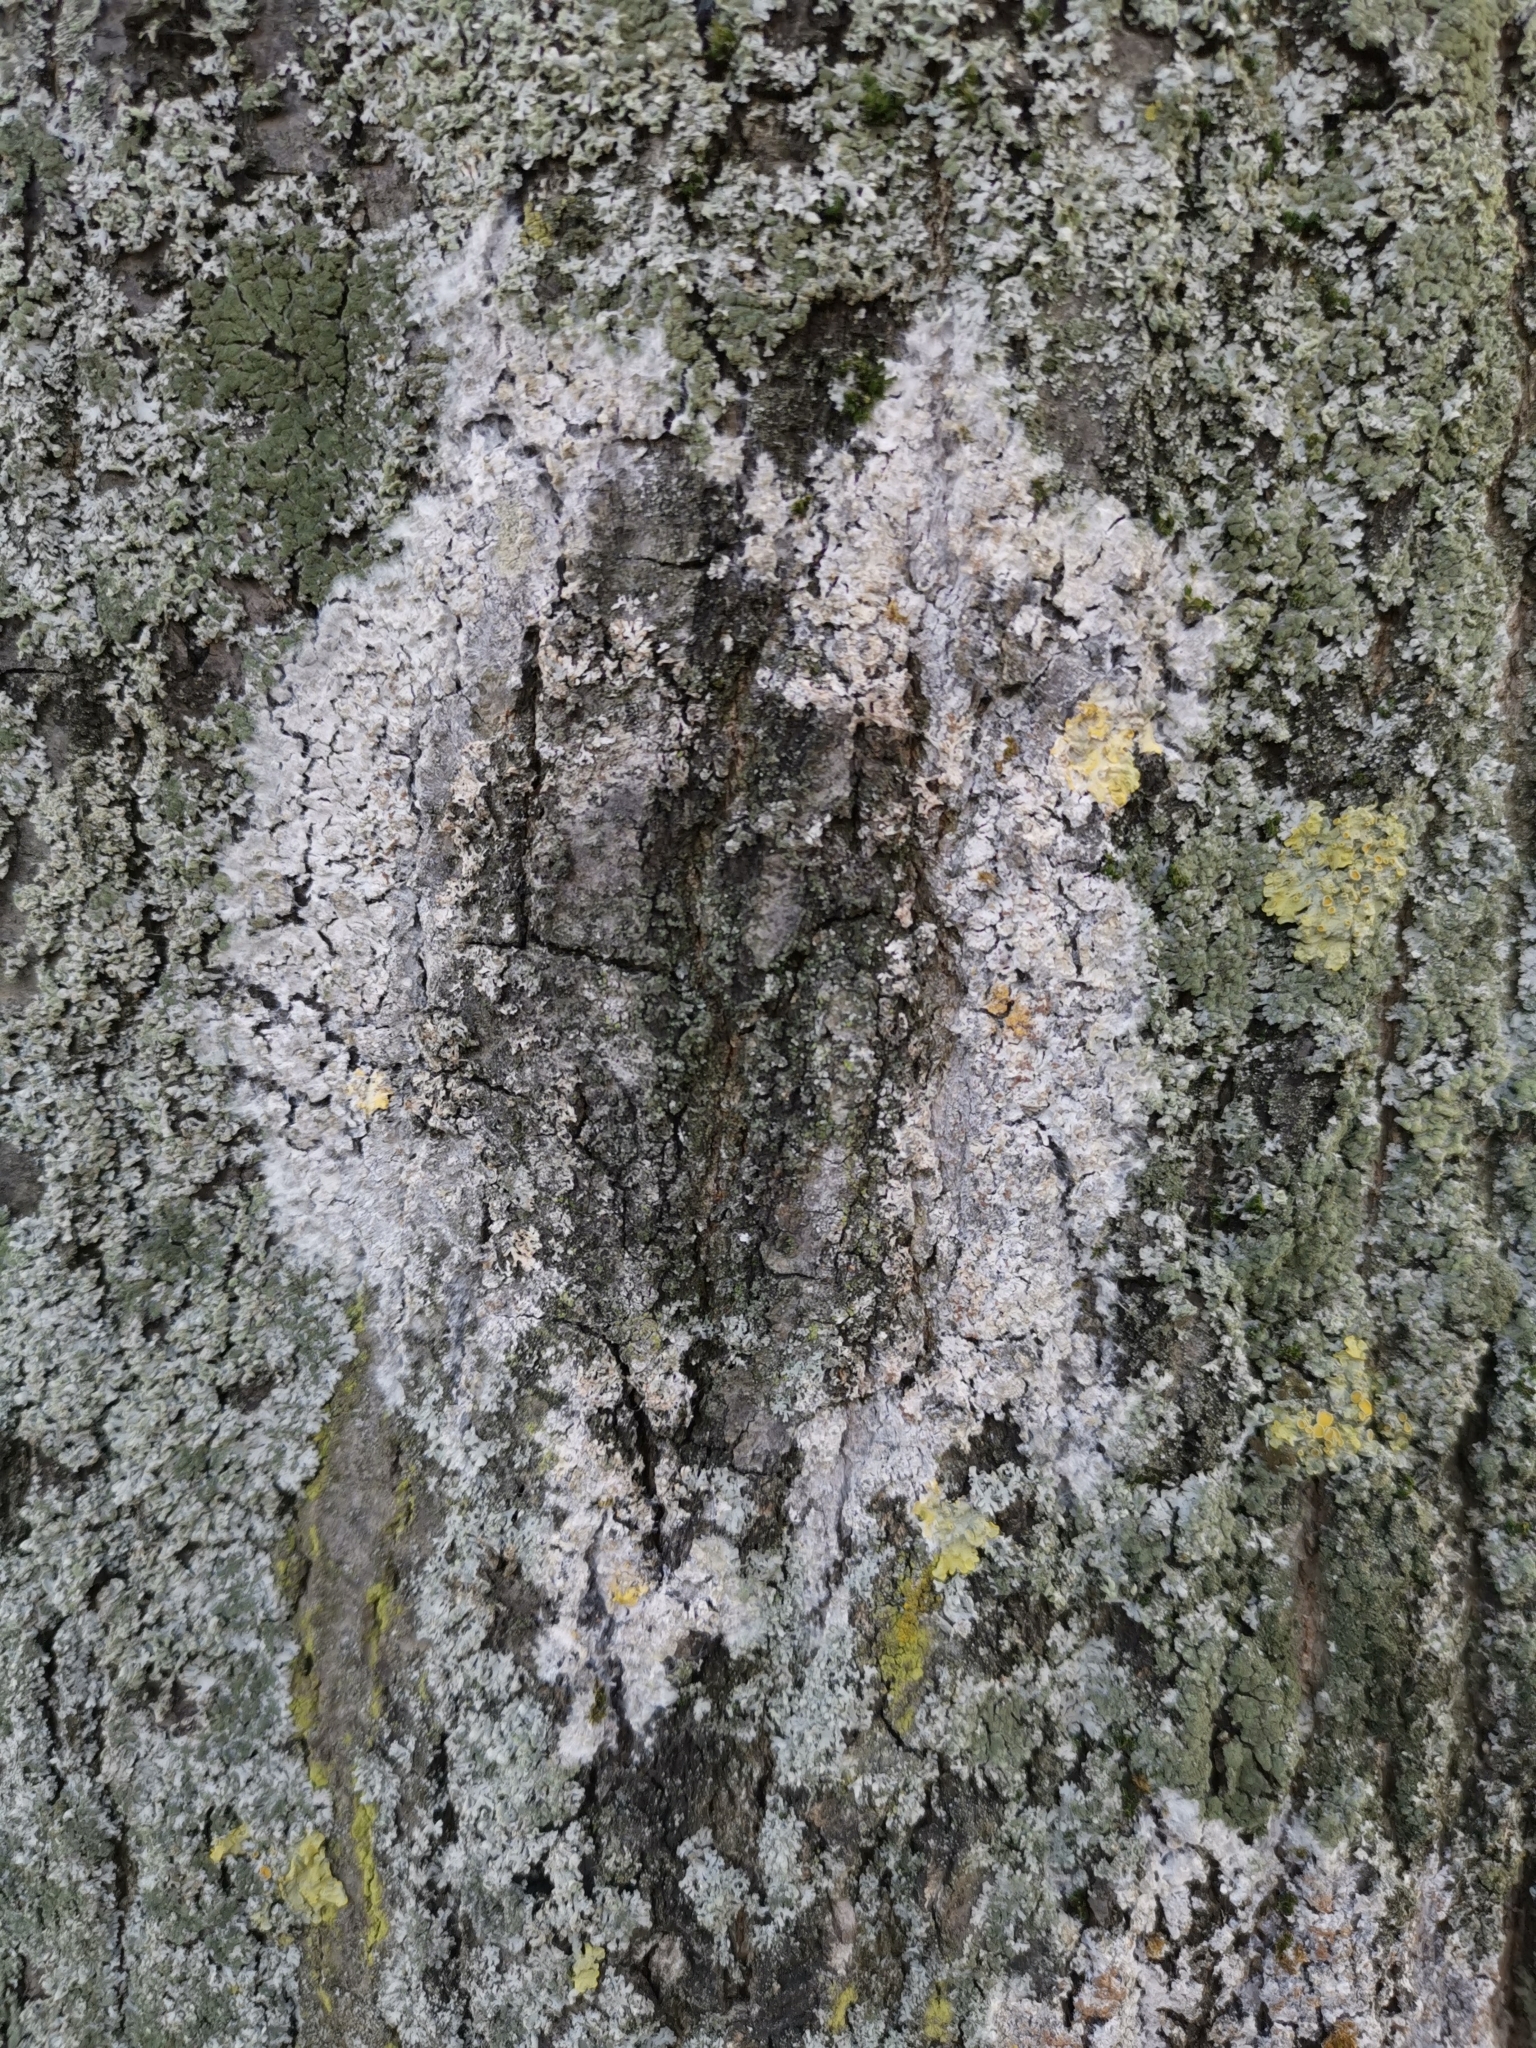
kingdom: Fungi
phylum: Basidiomycota
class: Agaricomycetes
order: Atheliales
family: Atheliaceae
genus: Athelia
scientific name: Athelia arachnoidea
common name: Candelabra duster
